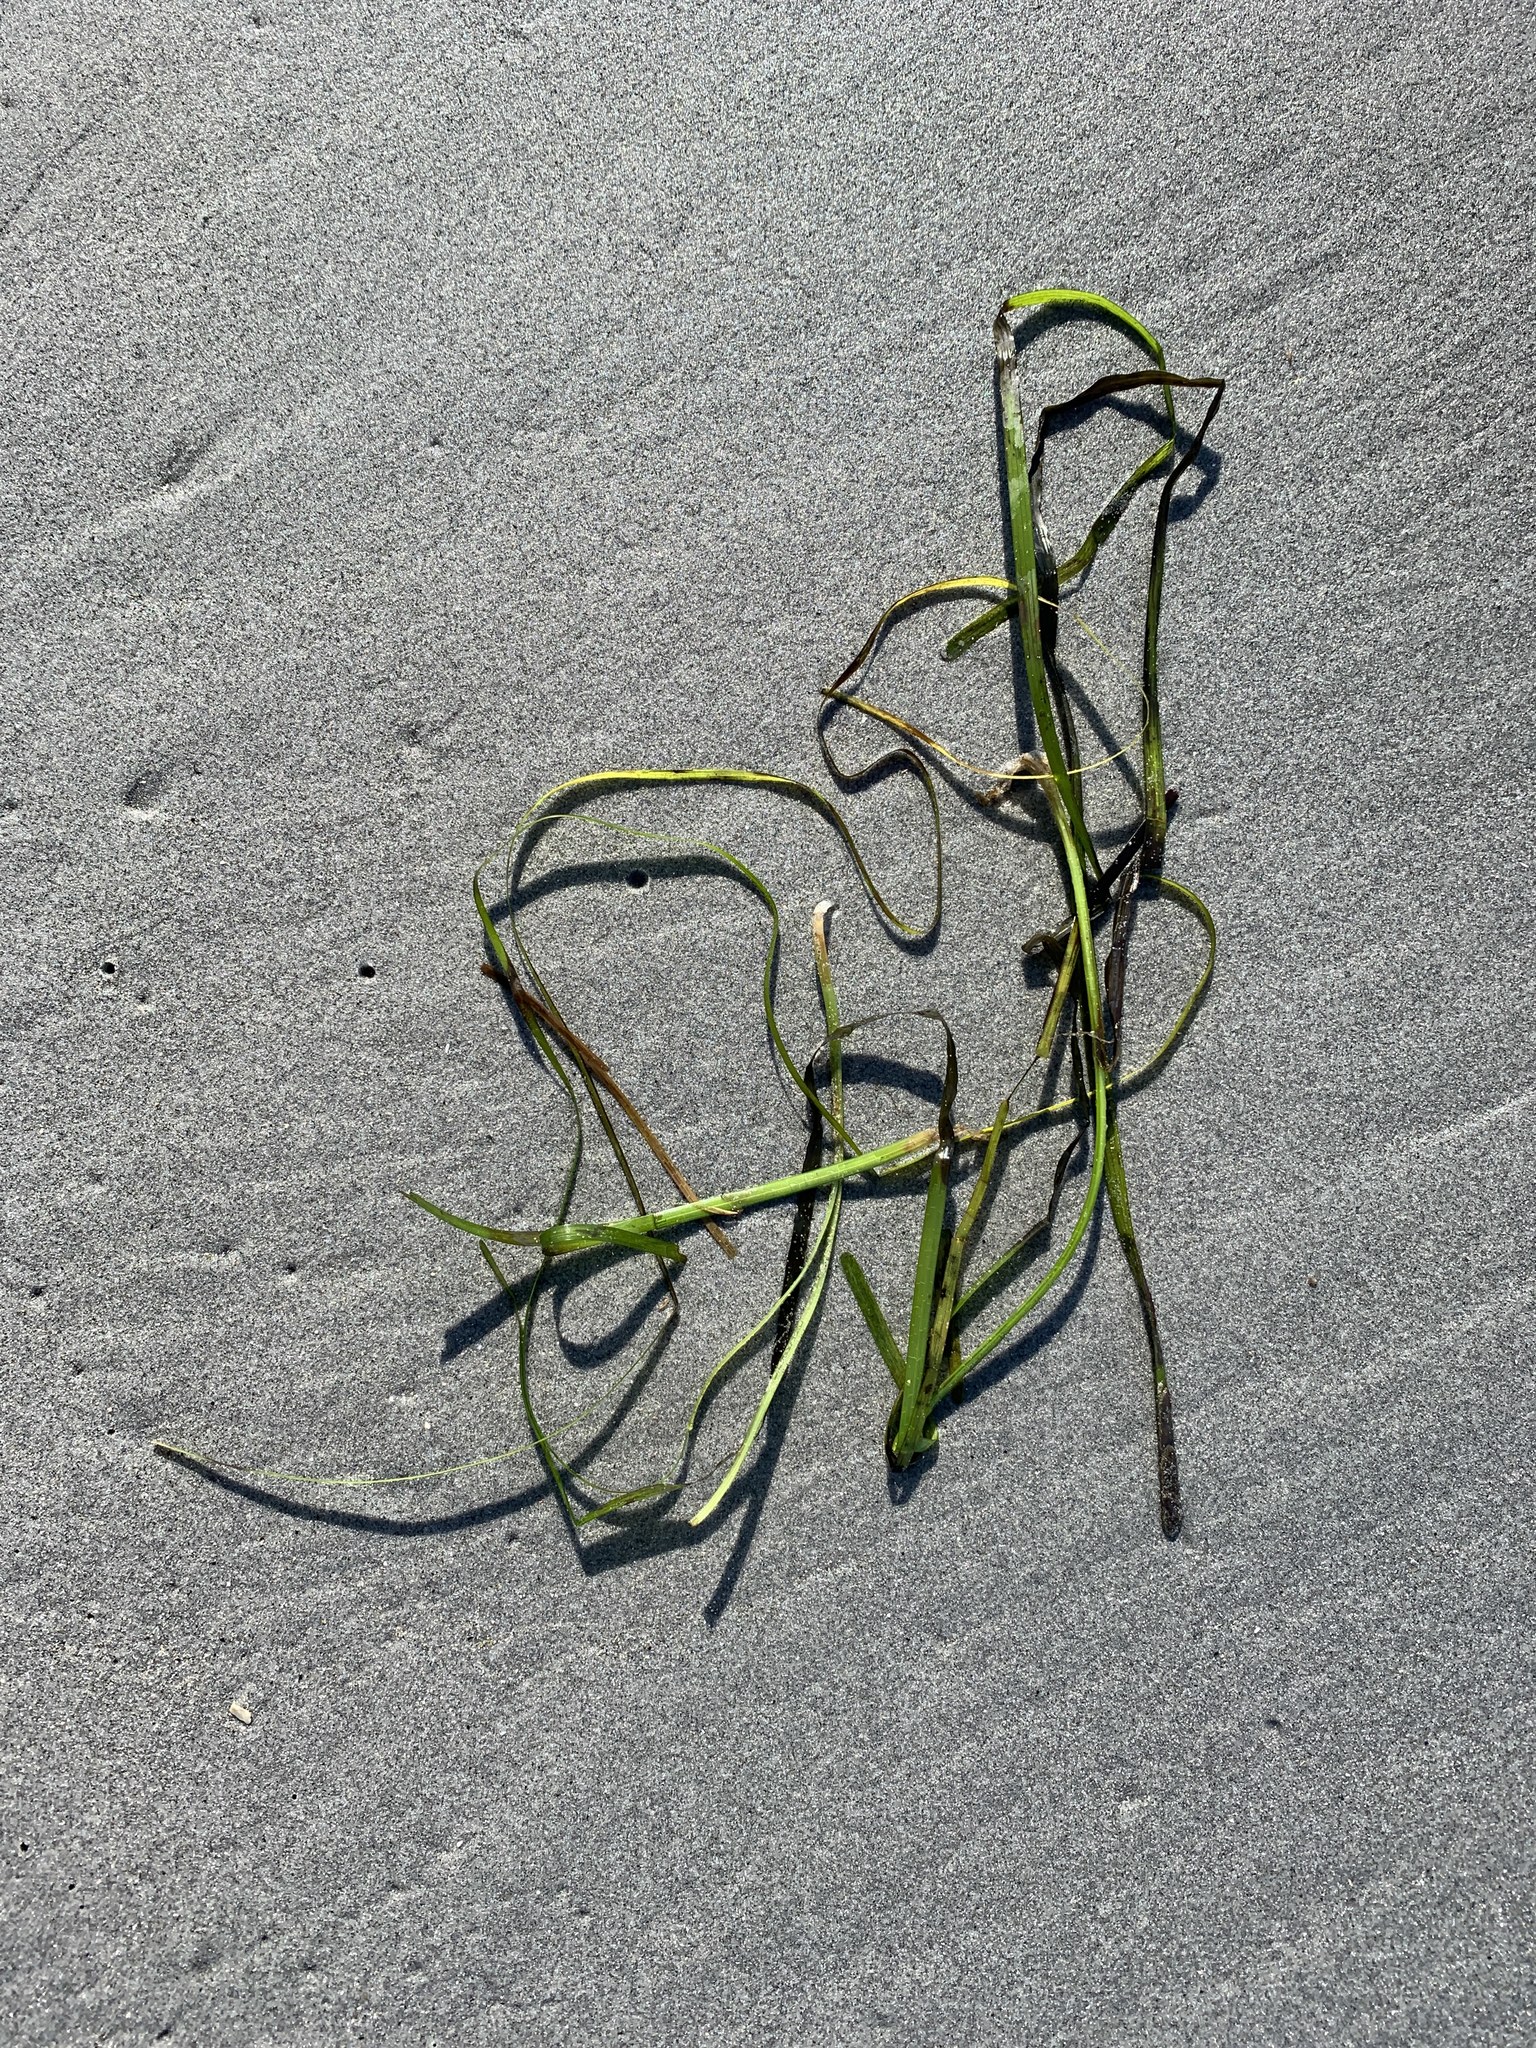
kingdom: Plantae
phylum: Tracheophyta
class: Liliopsida
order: Alismatales
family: Zosteraceae
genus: Zostera
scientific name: Zostera marina
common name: Eelgrass
